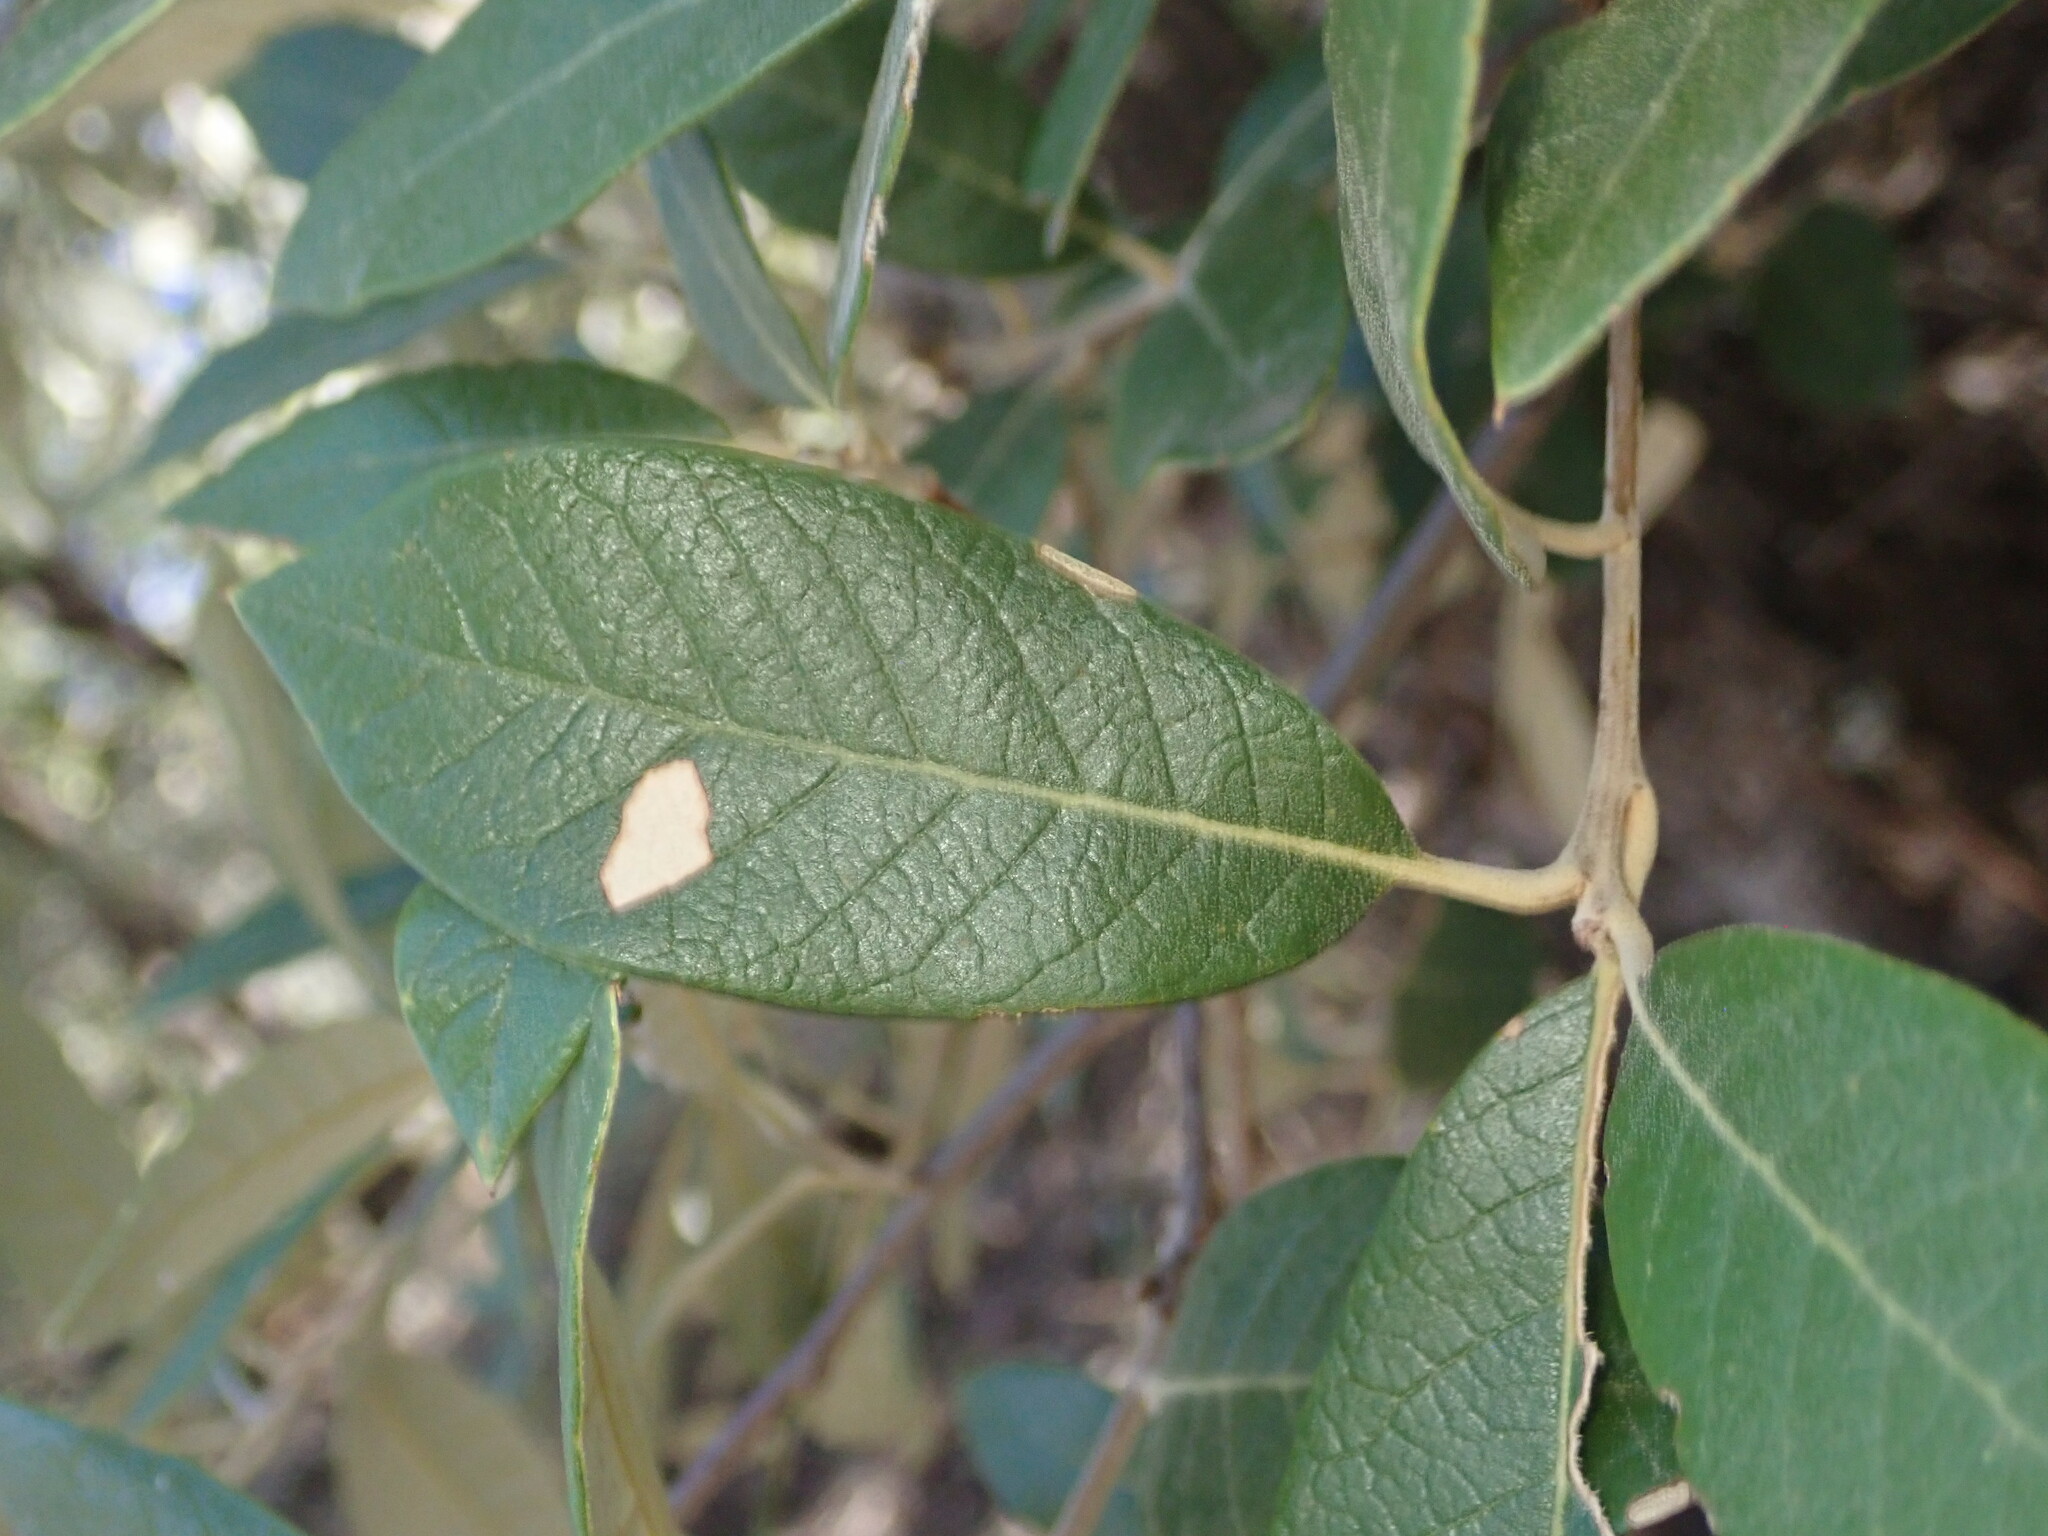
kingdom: Plantae
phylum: Tracheophyta
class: Magnoliopsida
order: Fagales
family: Fagaceae
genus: Quercus
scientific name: Quercus hypoleucoides
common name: Silverleaf oak
